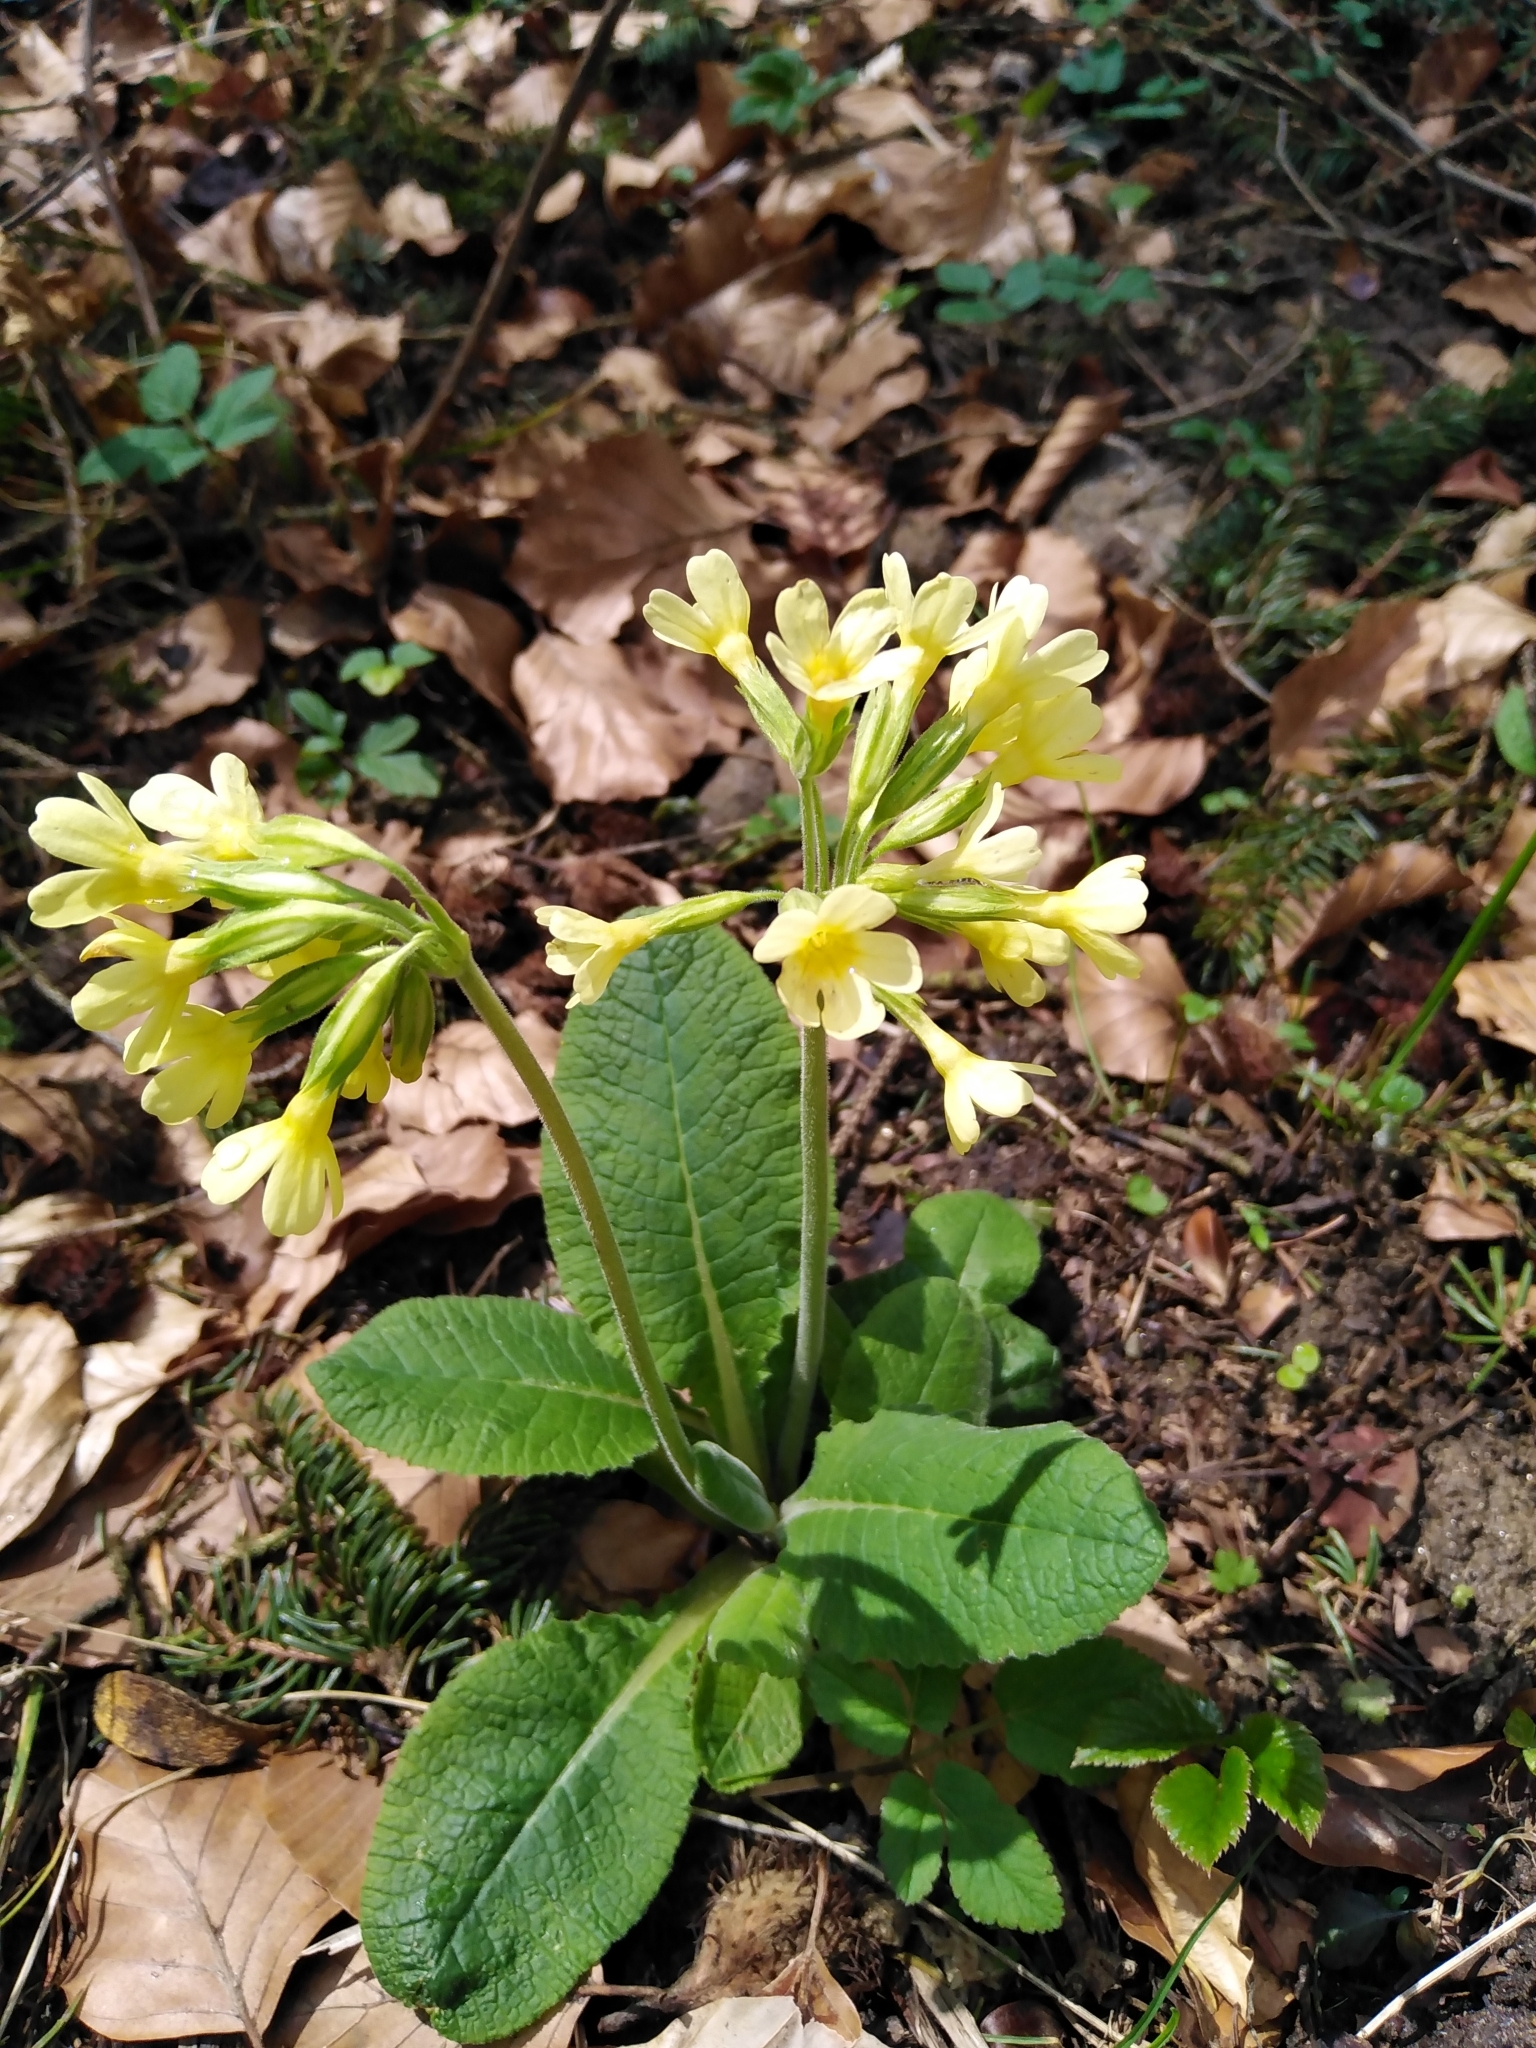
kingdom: Plantae
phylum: Tracheophyta
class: Magnoliopsida
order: Ericales
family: Primulaceae
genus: Primula
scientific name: Primula elatior
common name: Oxlip
